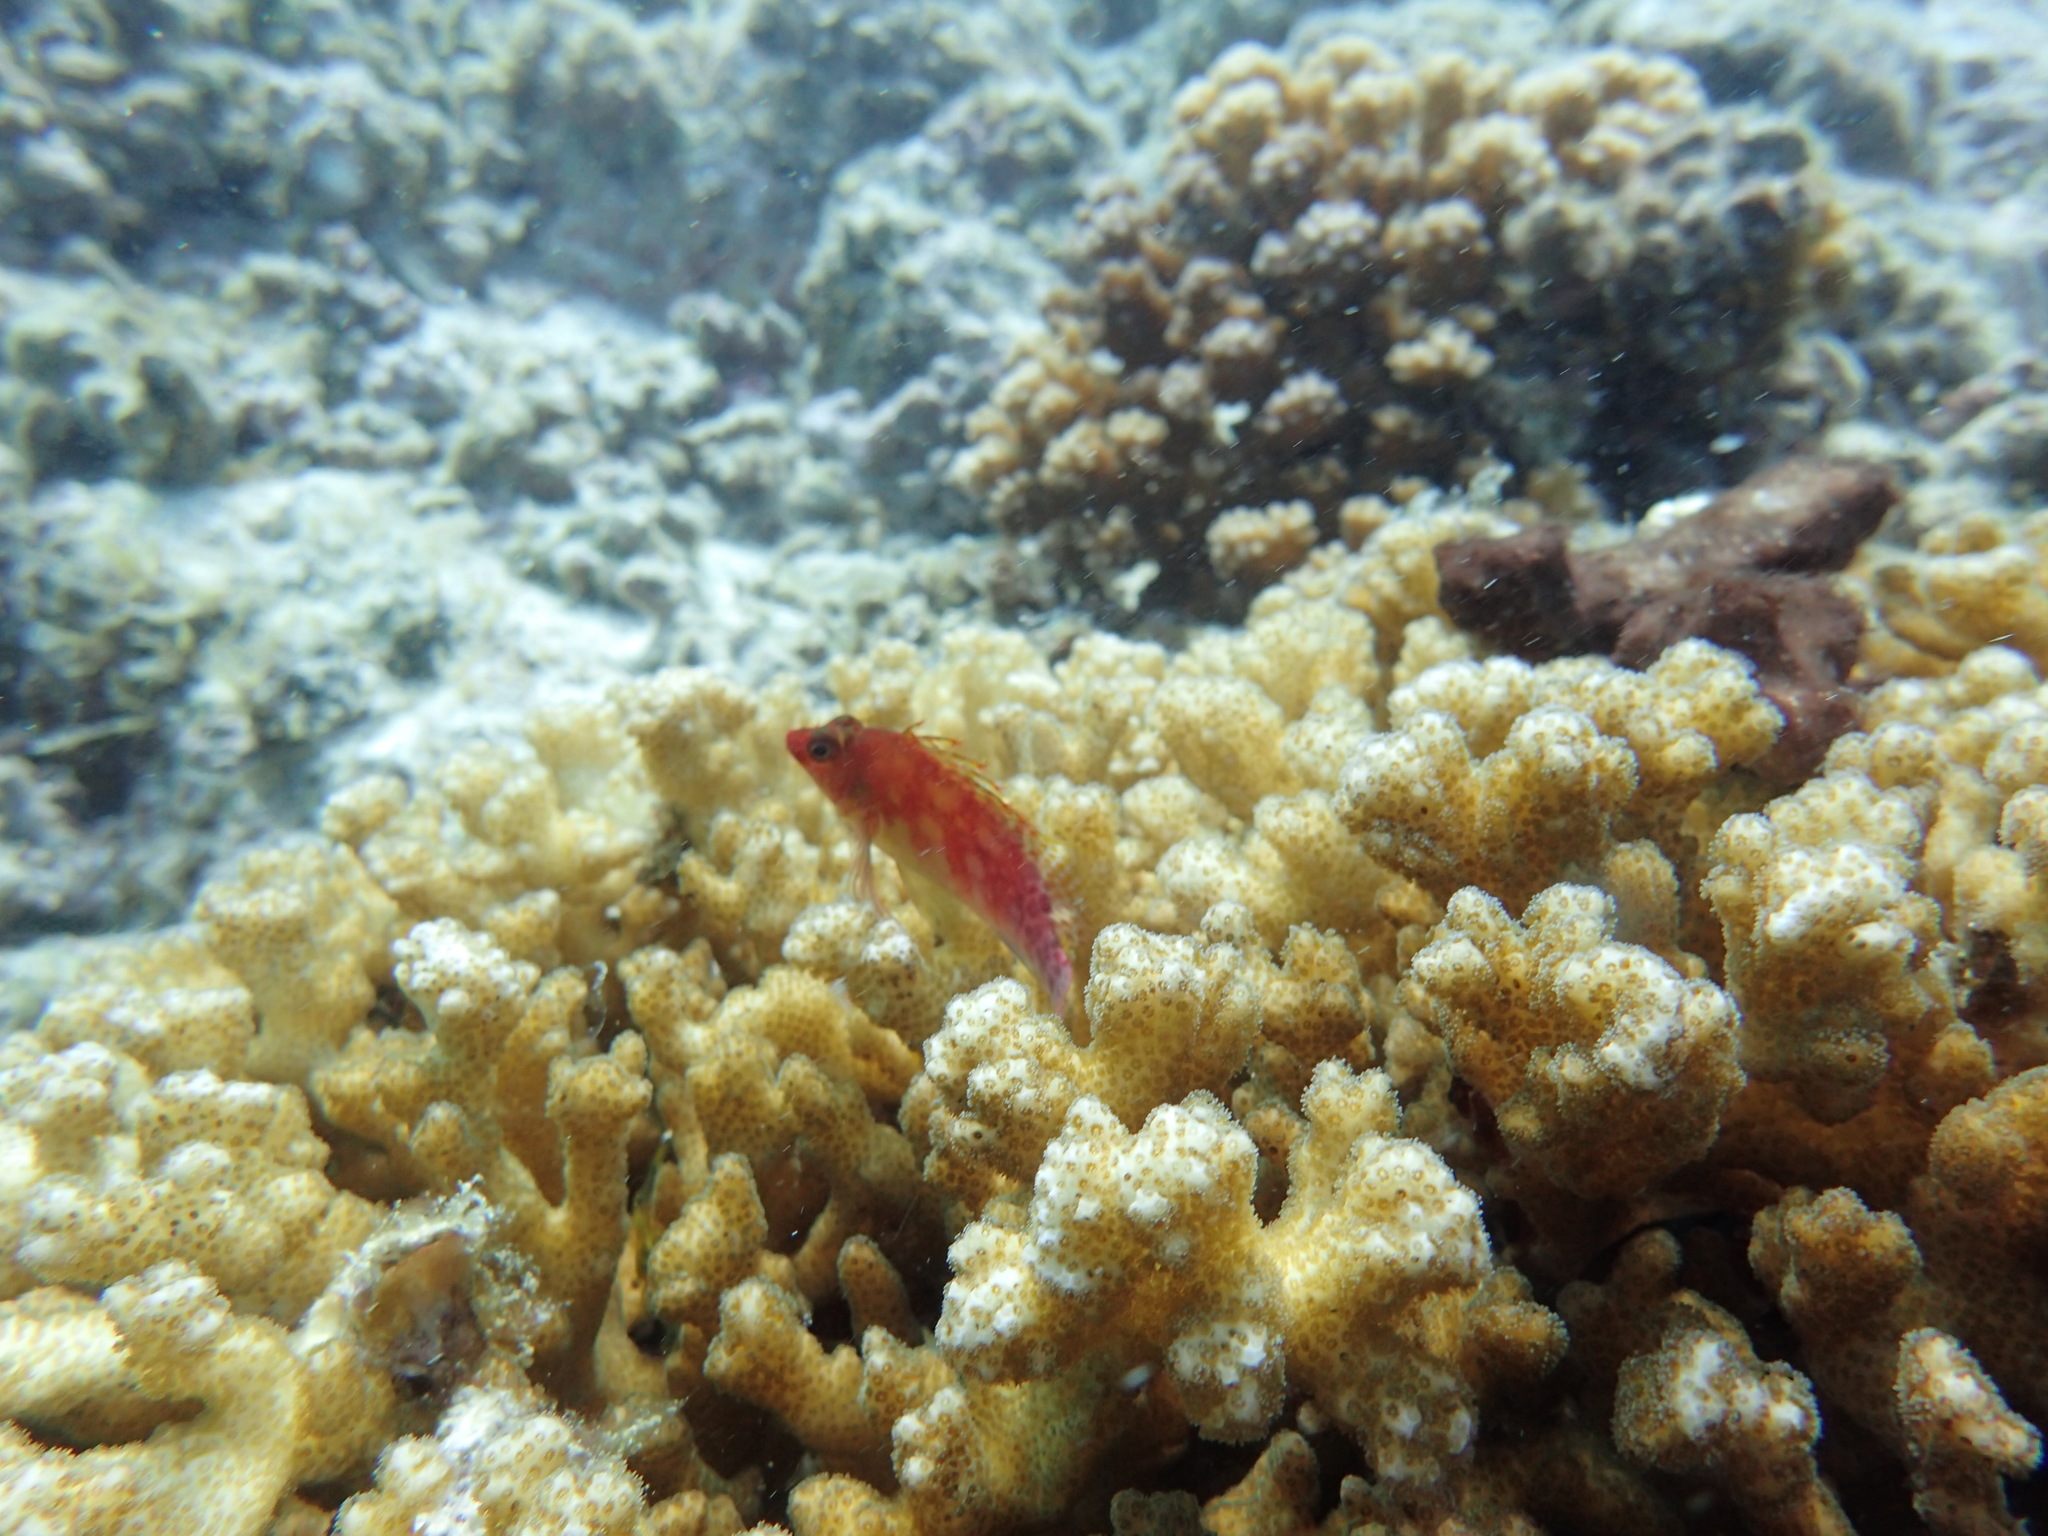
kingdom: Animalia
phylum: Chordata
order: Perciformes
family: Cirrhitidae
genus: Cirrhitichthys
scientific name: Cirrhitichthys oxycephalus
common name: Spotted hawkfish
